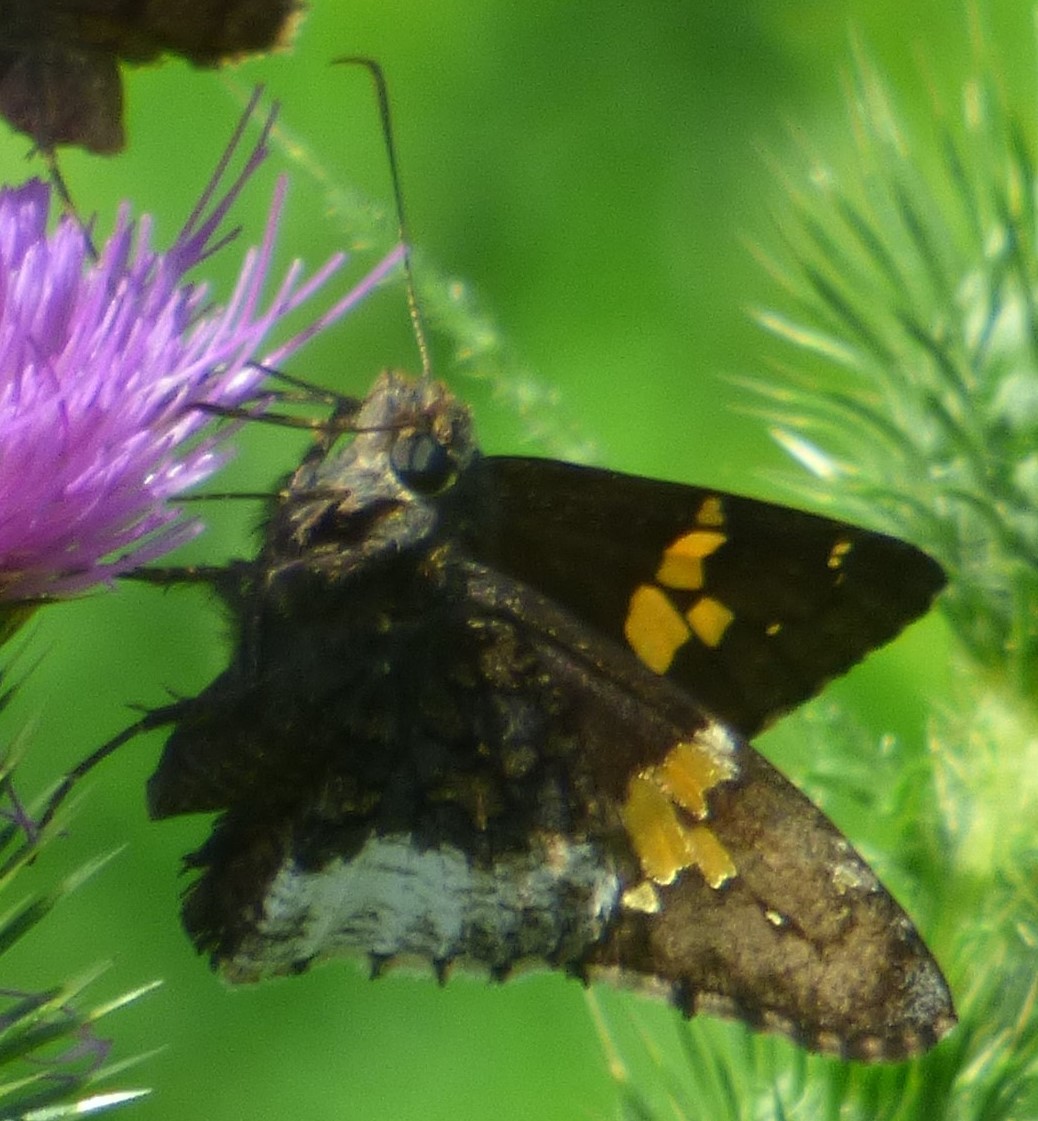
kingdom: Animalia
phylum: Arthropoda
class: Insecta
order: Lepidoptera
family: Hesperiidae
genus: Thorybes
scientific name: Thorybes lyciades
